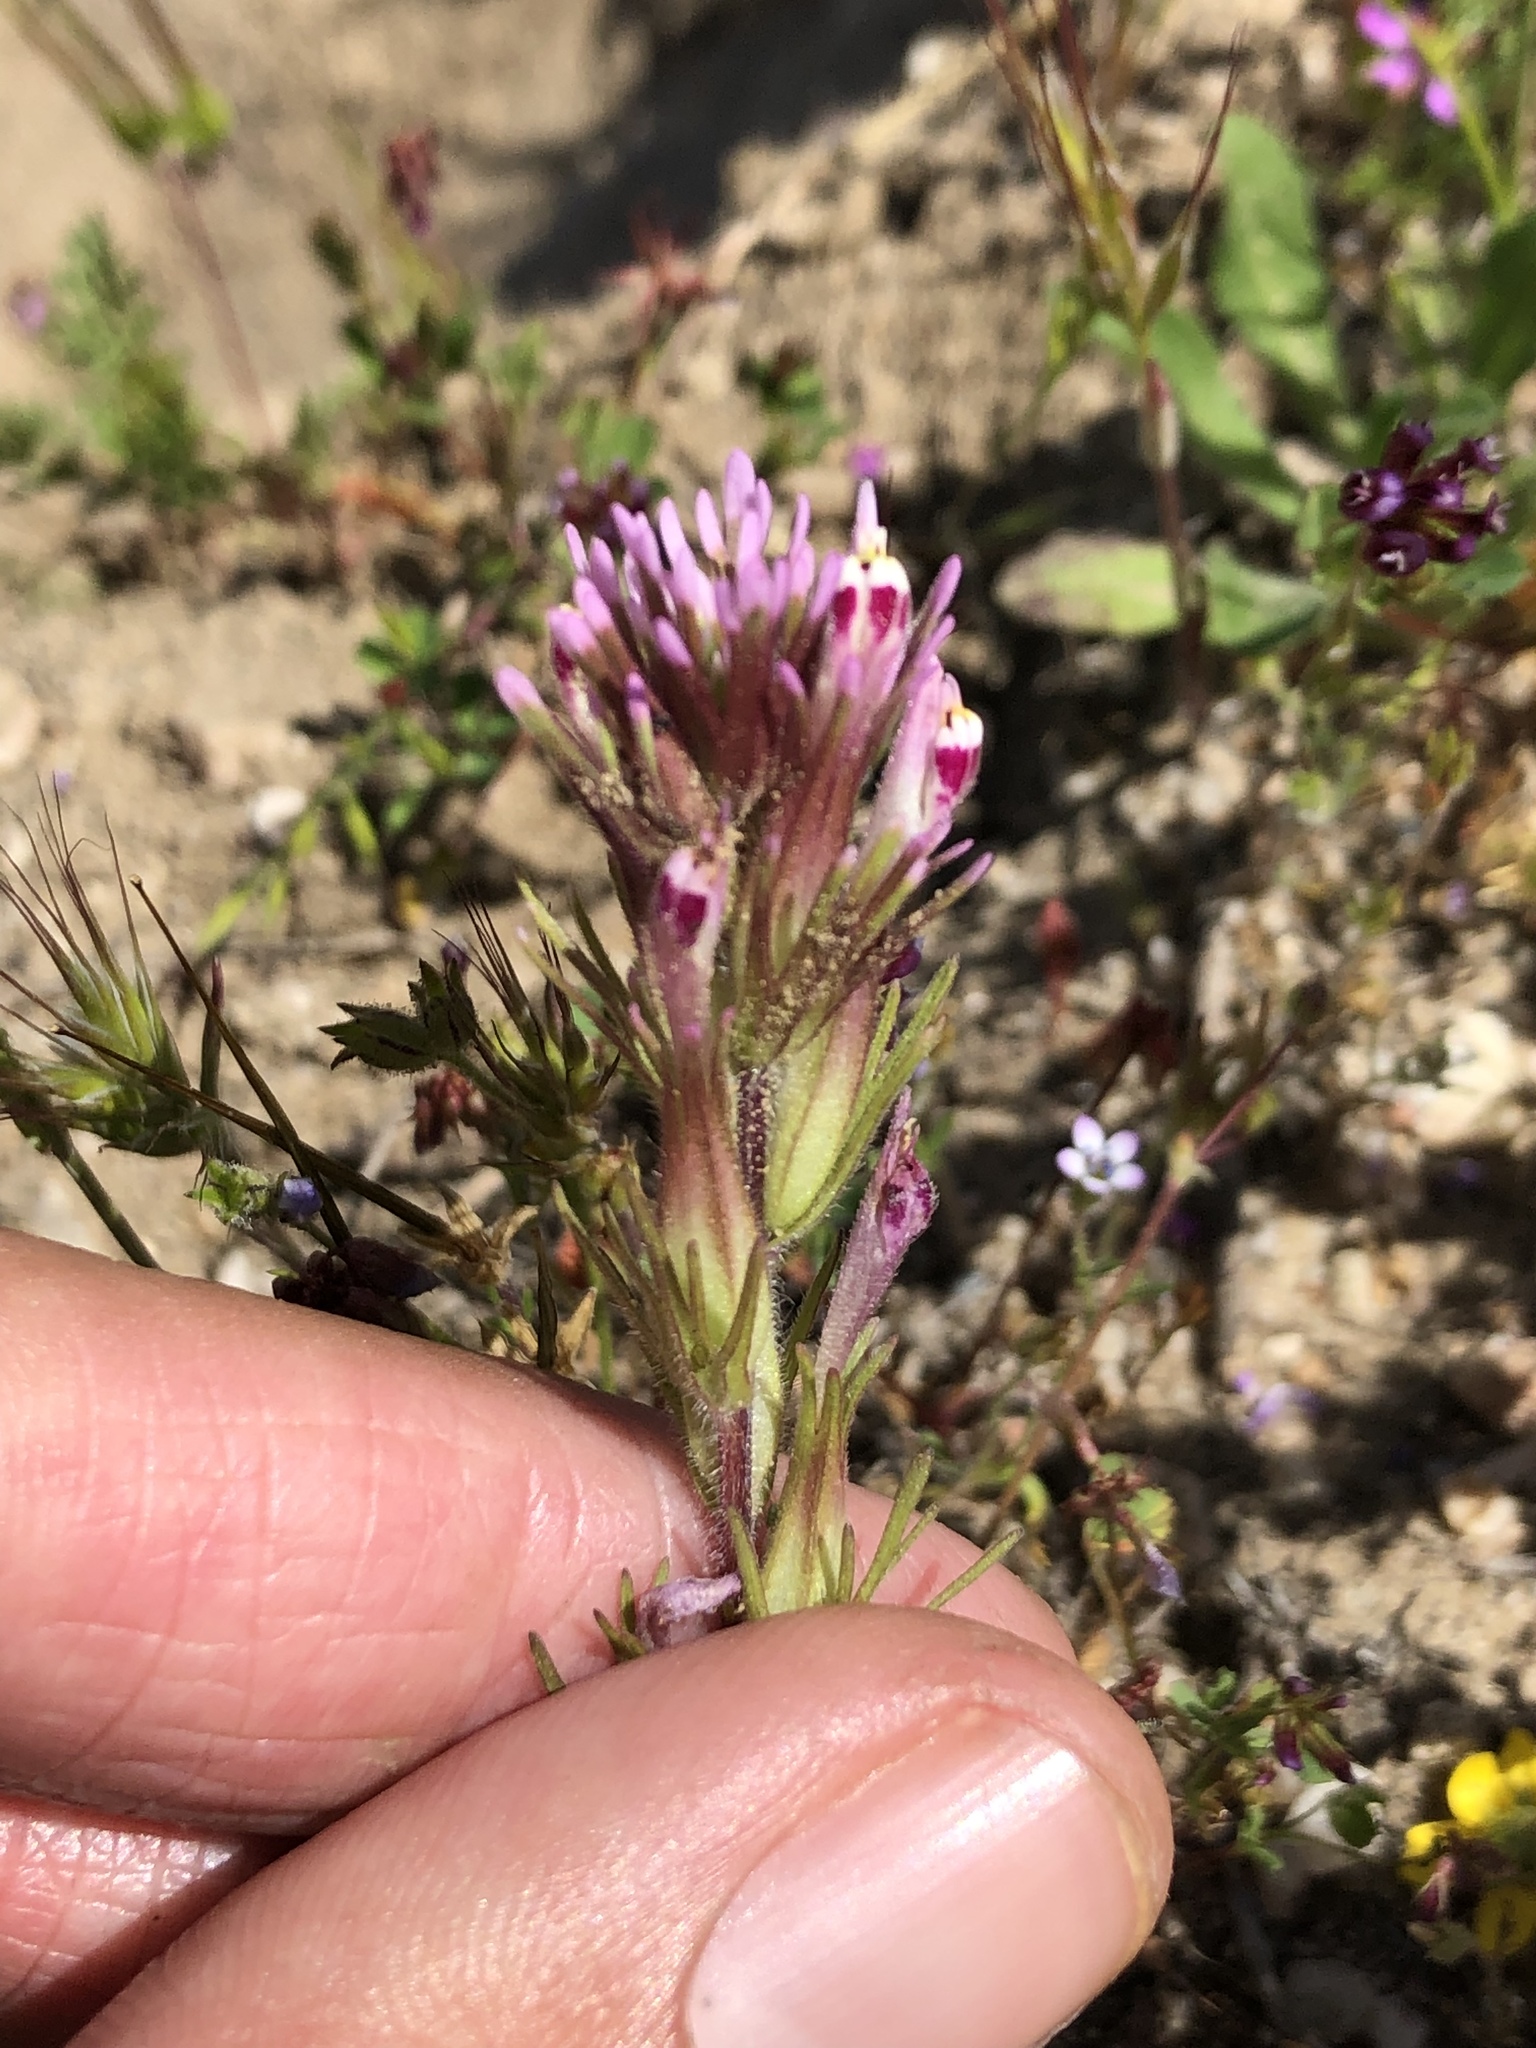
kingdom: Plantae
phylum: Tracheophyta
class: Magnoliopsida
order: Lamiales
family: Orobanchaceae
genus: Castilleja
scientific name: Castilleja densiflora
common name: Dense-flower indian paintbrush
